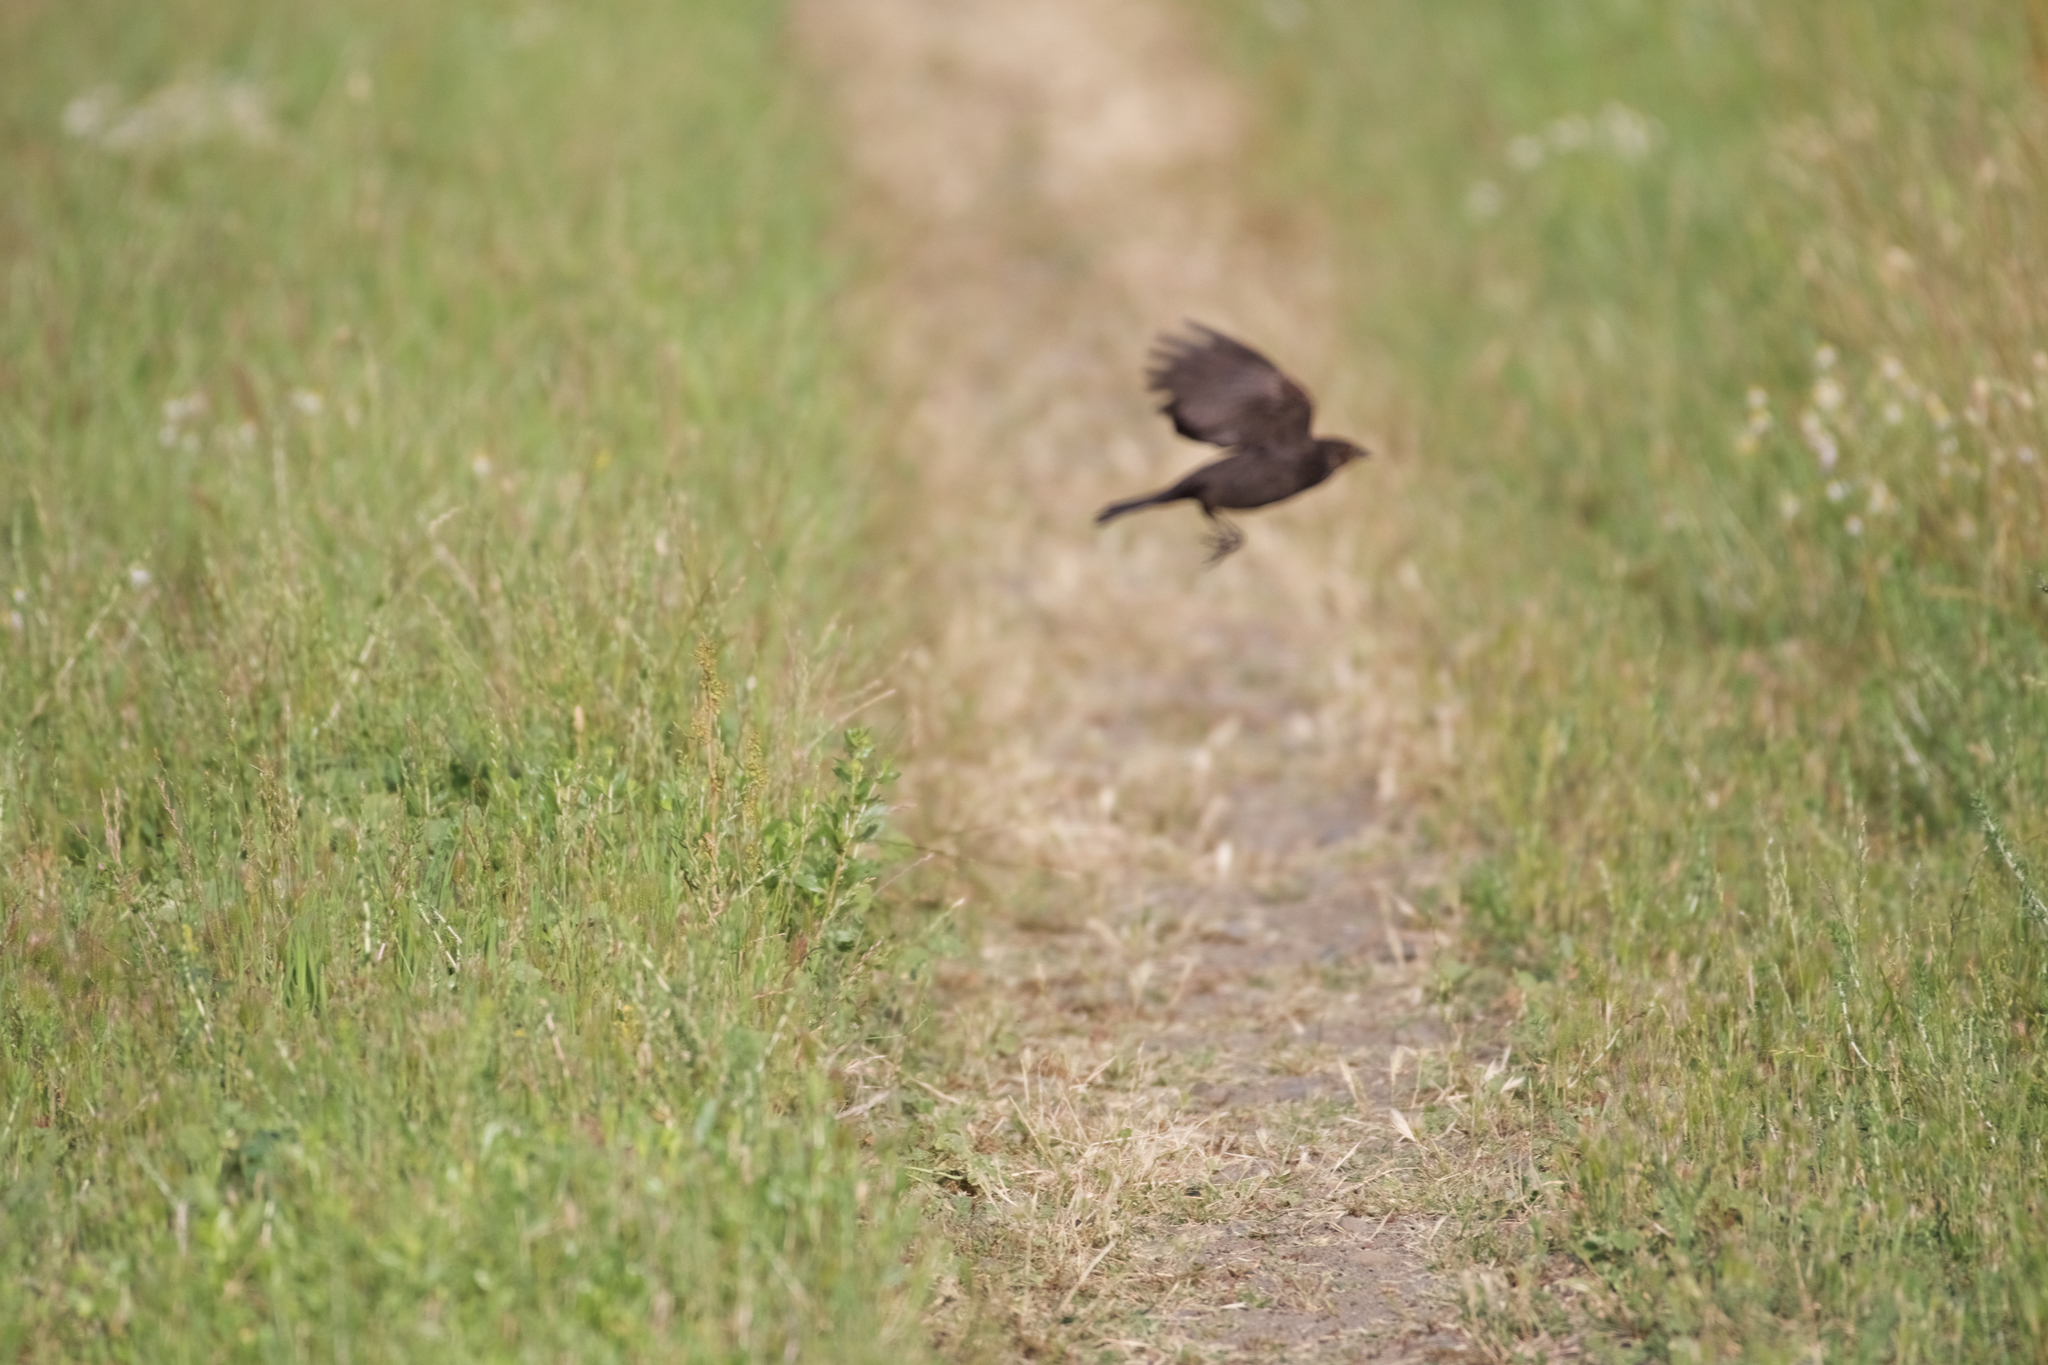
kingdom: Animalia
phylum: Chordata
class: Aves
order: Passeriformes
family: Icteridae
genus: Molothrus
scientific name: Molothrus ater
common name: Brown-headed cowbird
